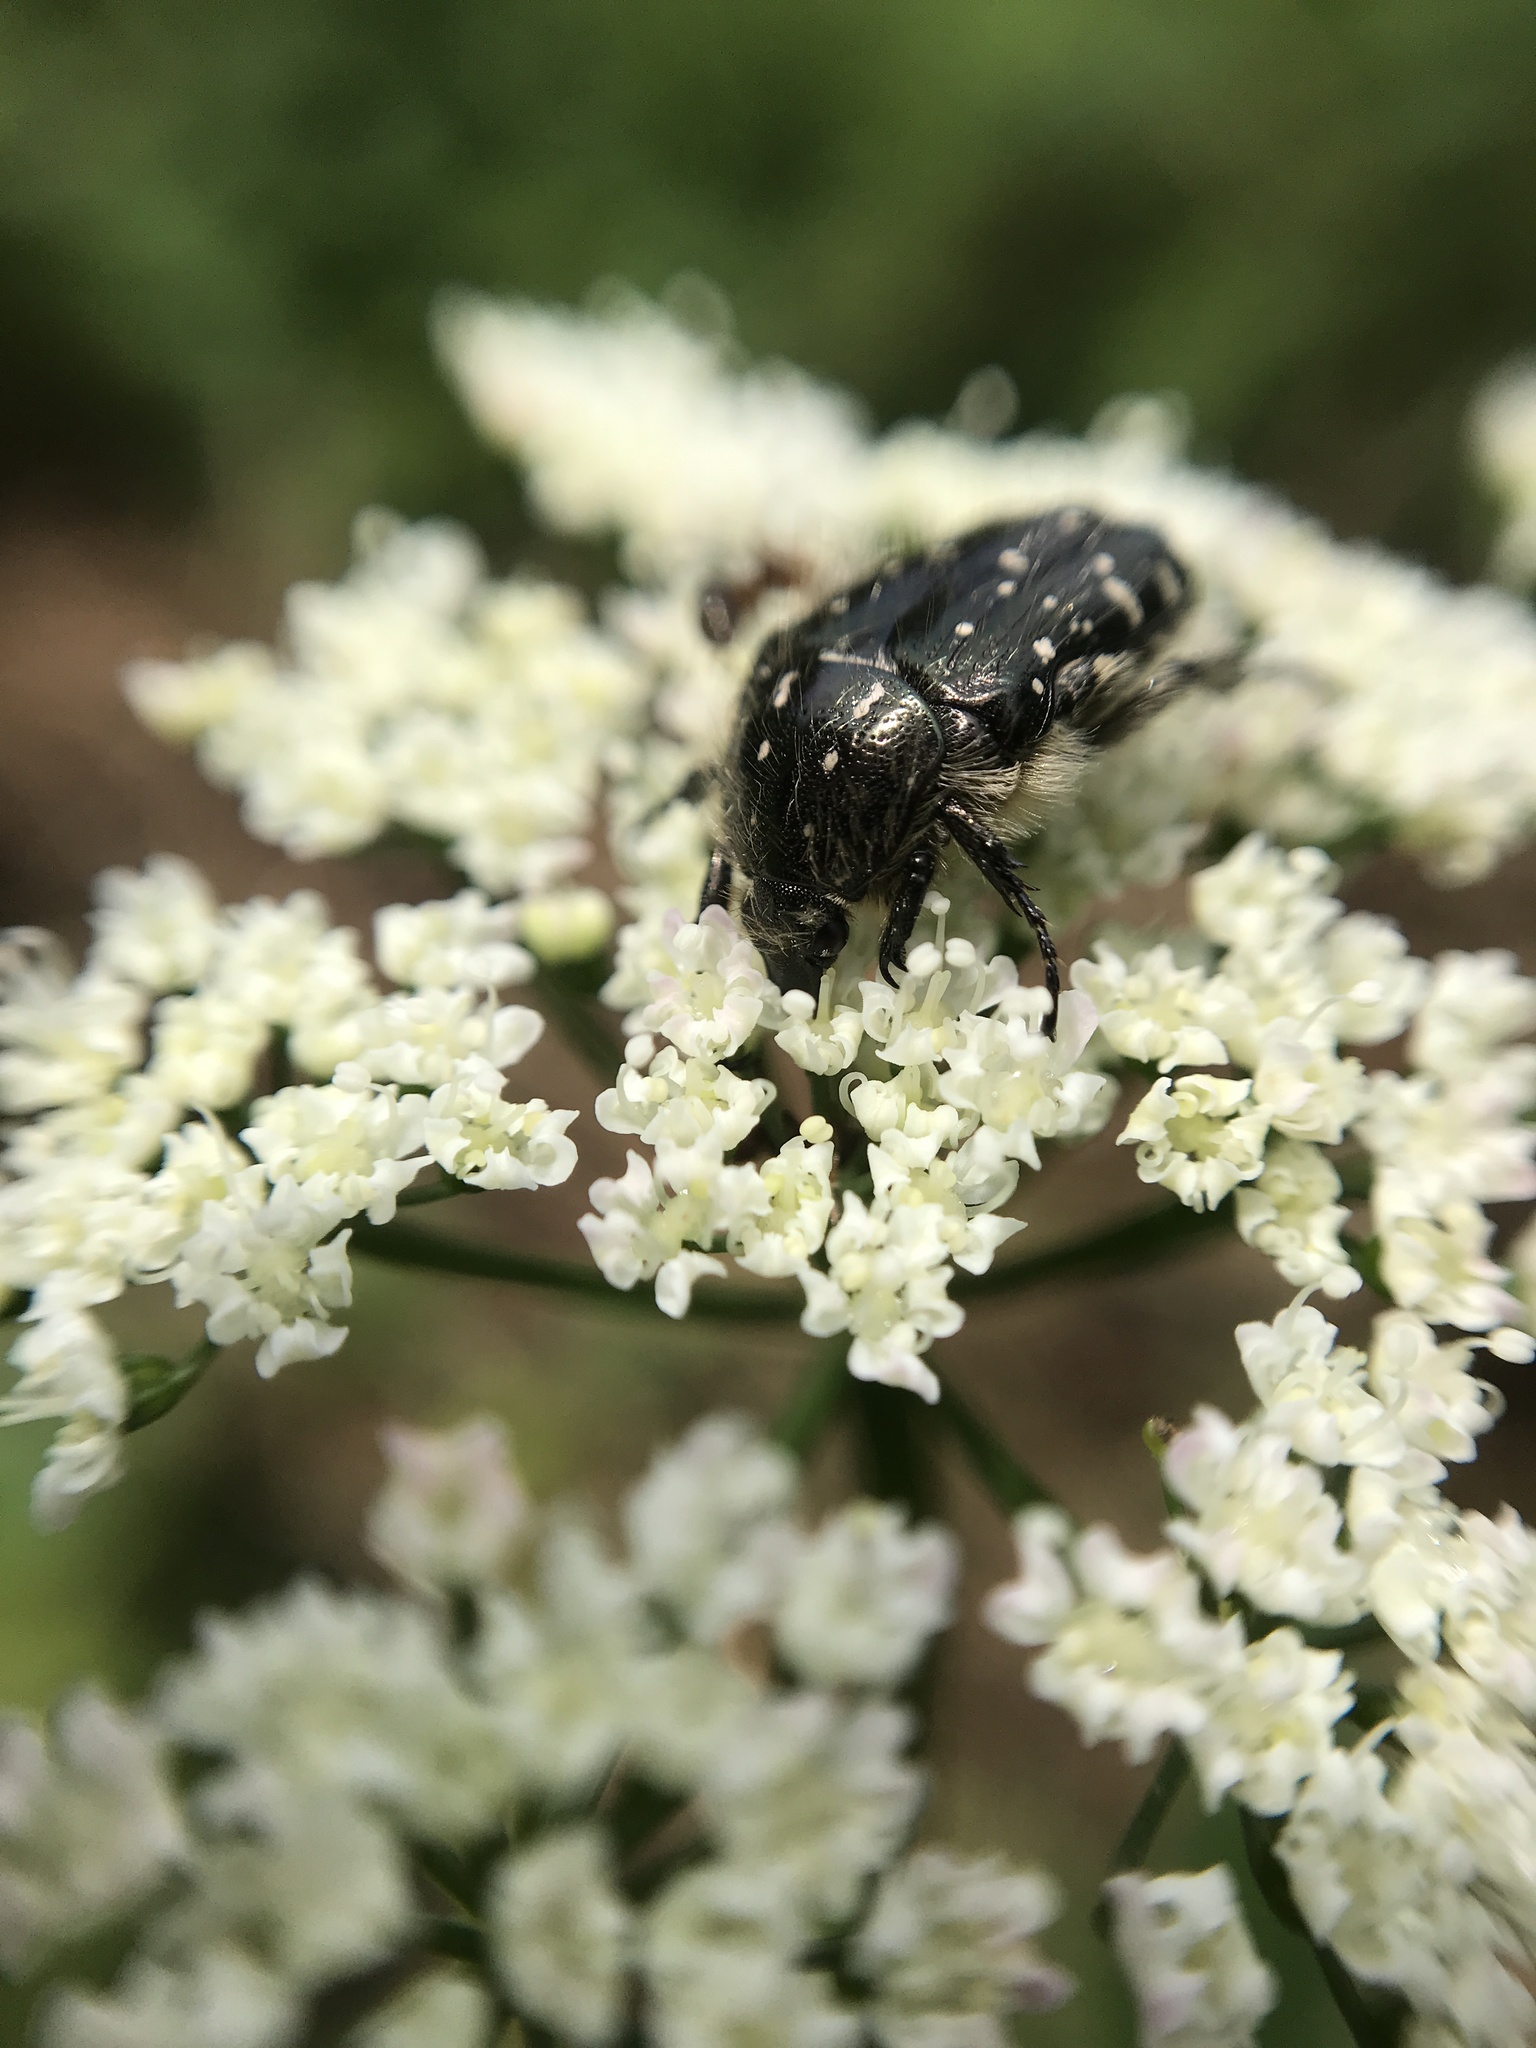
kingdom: Animalia
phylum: Arthropoda
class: Insecta
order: Coleoptera
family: Scarabaeidae
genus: Oxythyrea
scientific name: Oxythyrea funesta
